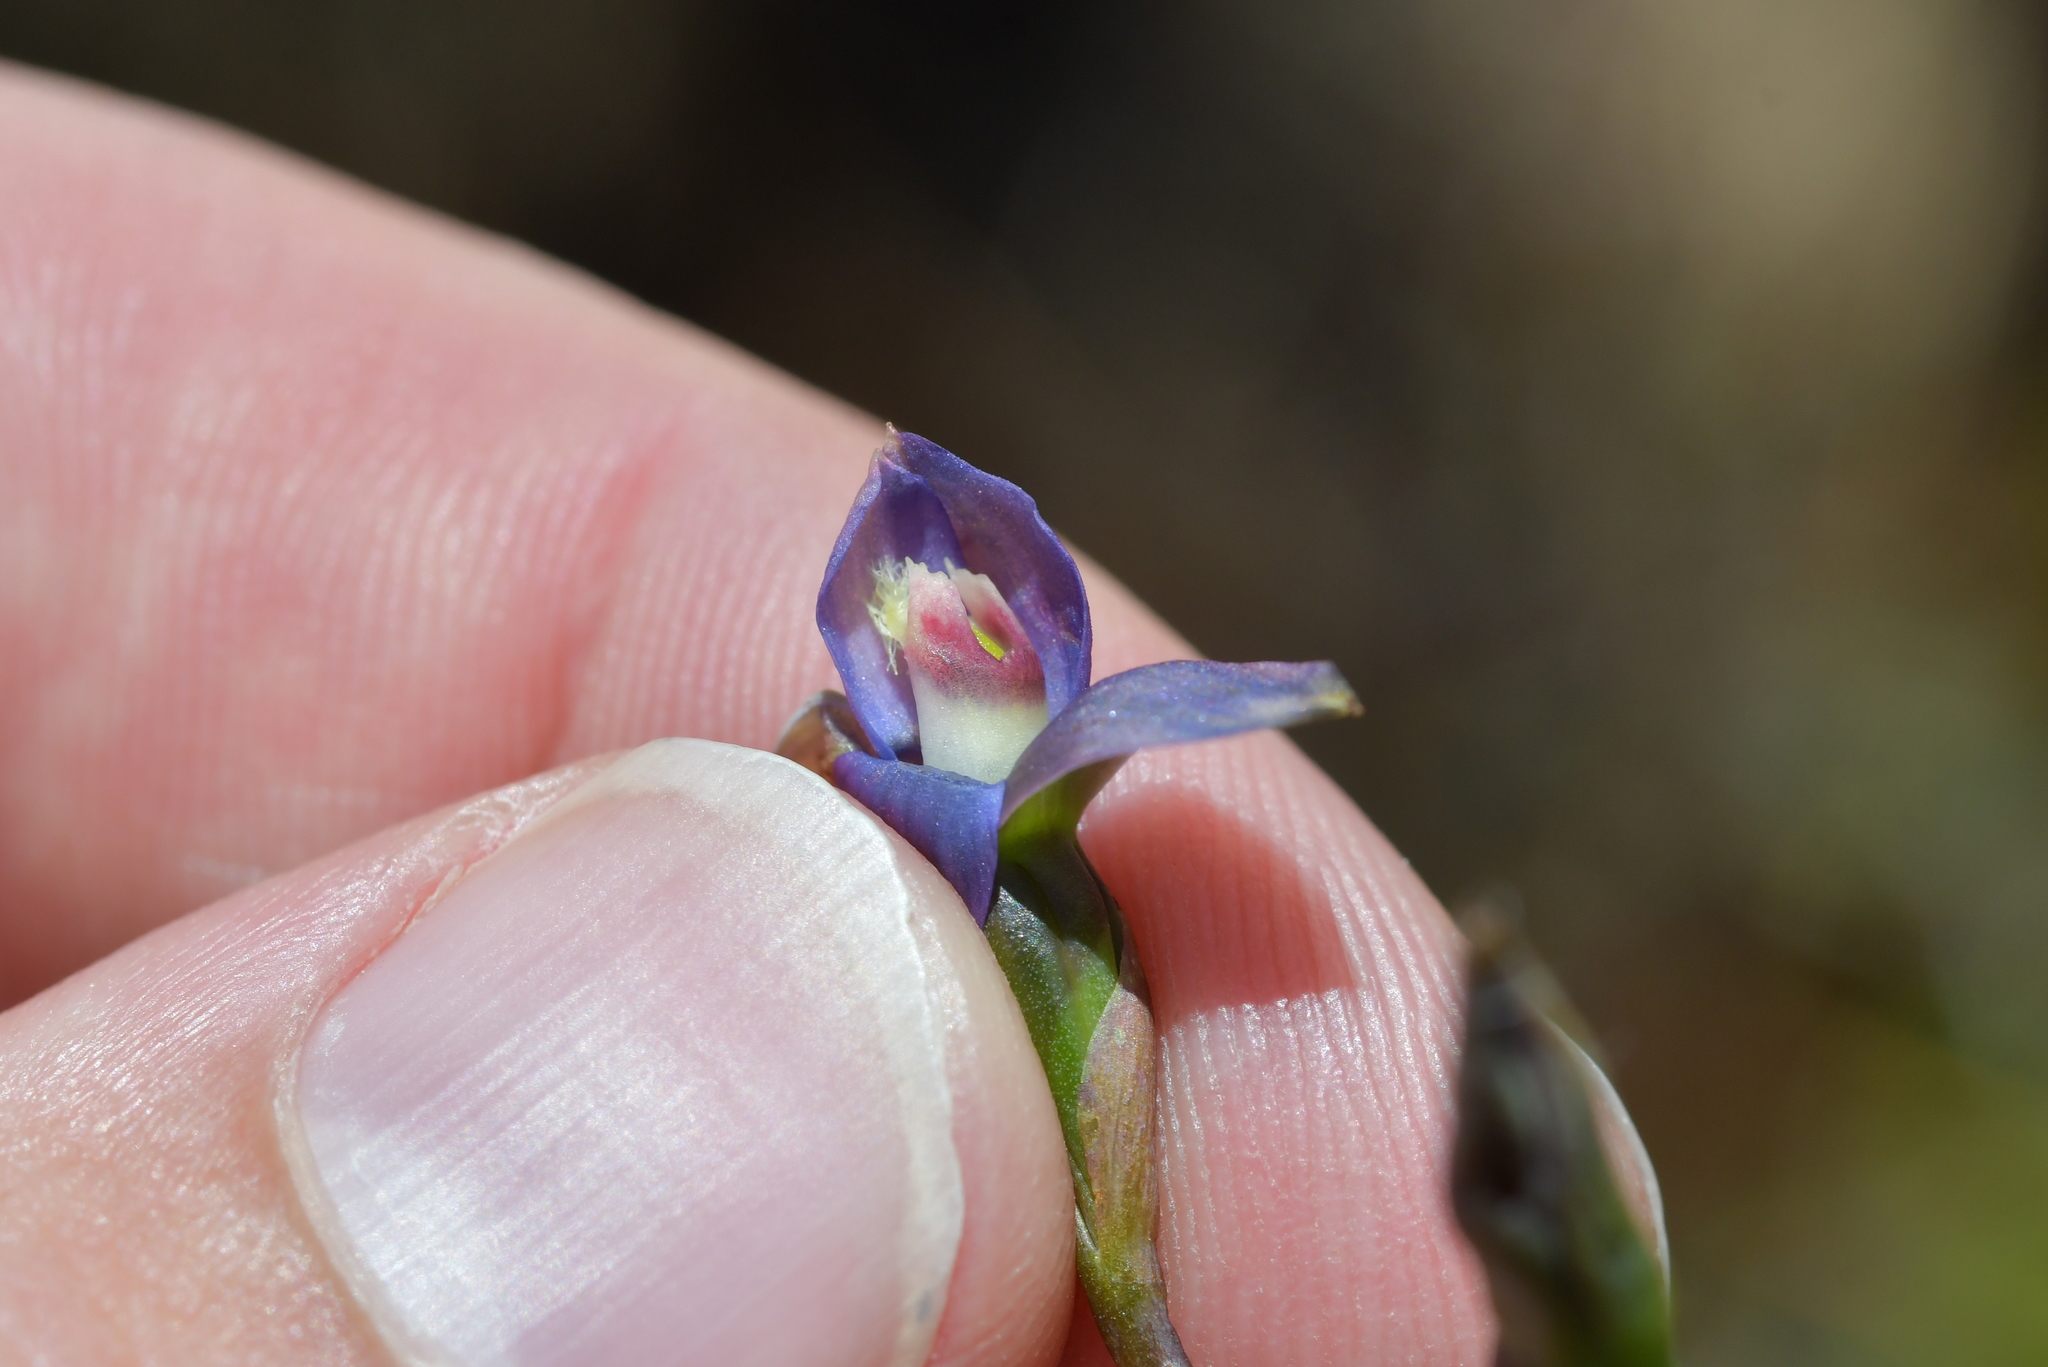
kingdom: Plantae
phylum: Tracheophyta
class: Liliopsida
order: Asparagales
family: Orchidaceae
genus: Thelymitra
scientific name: Thelymitra formosa
